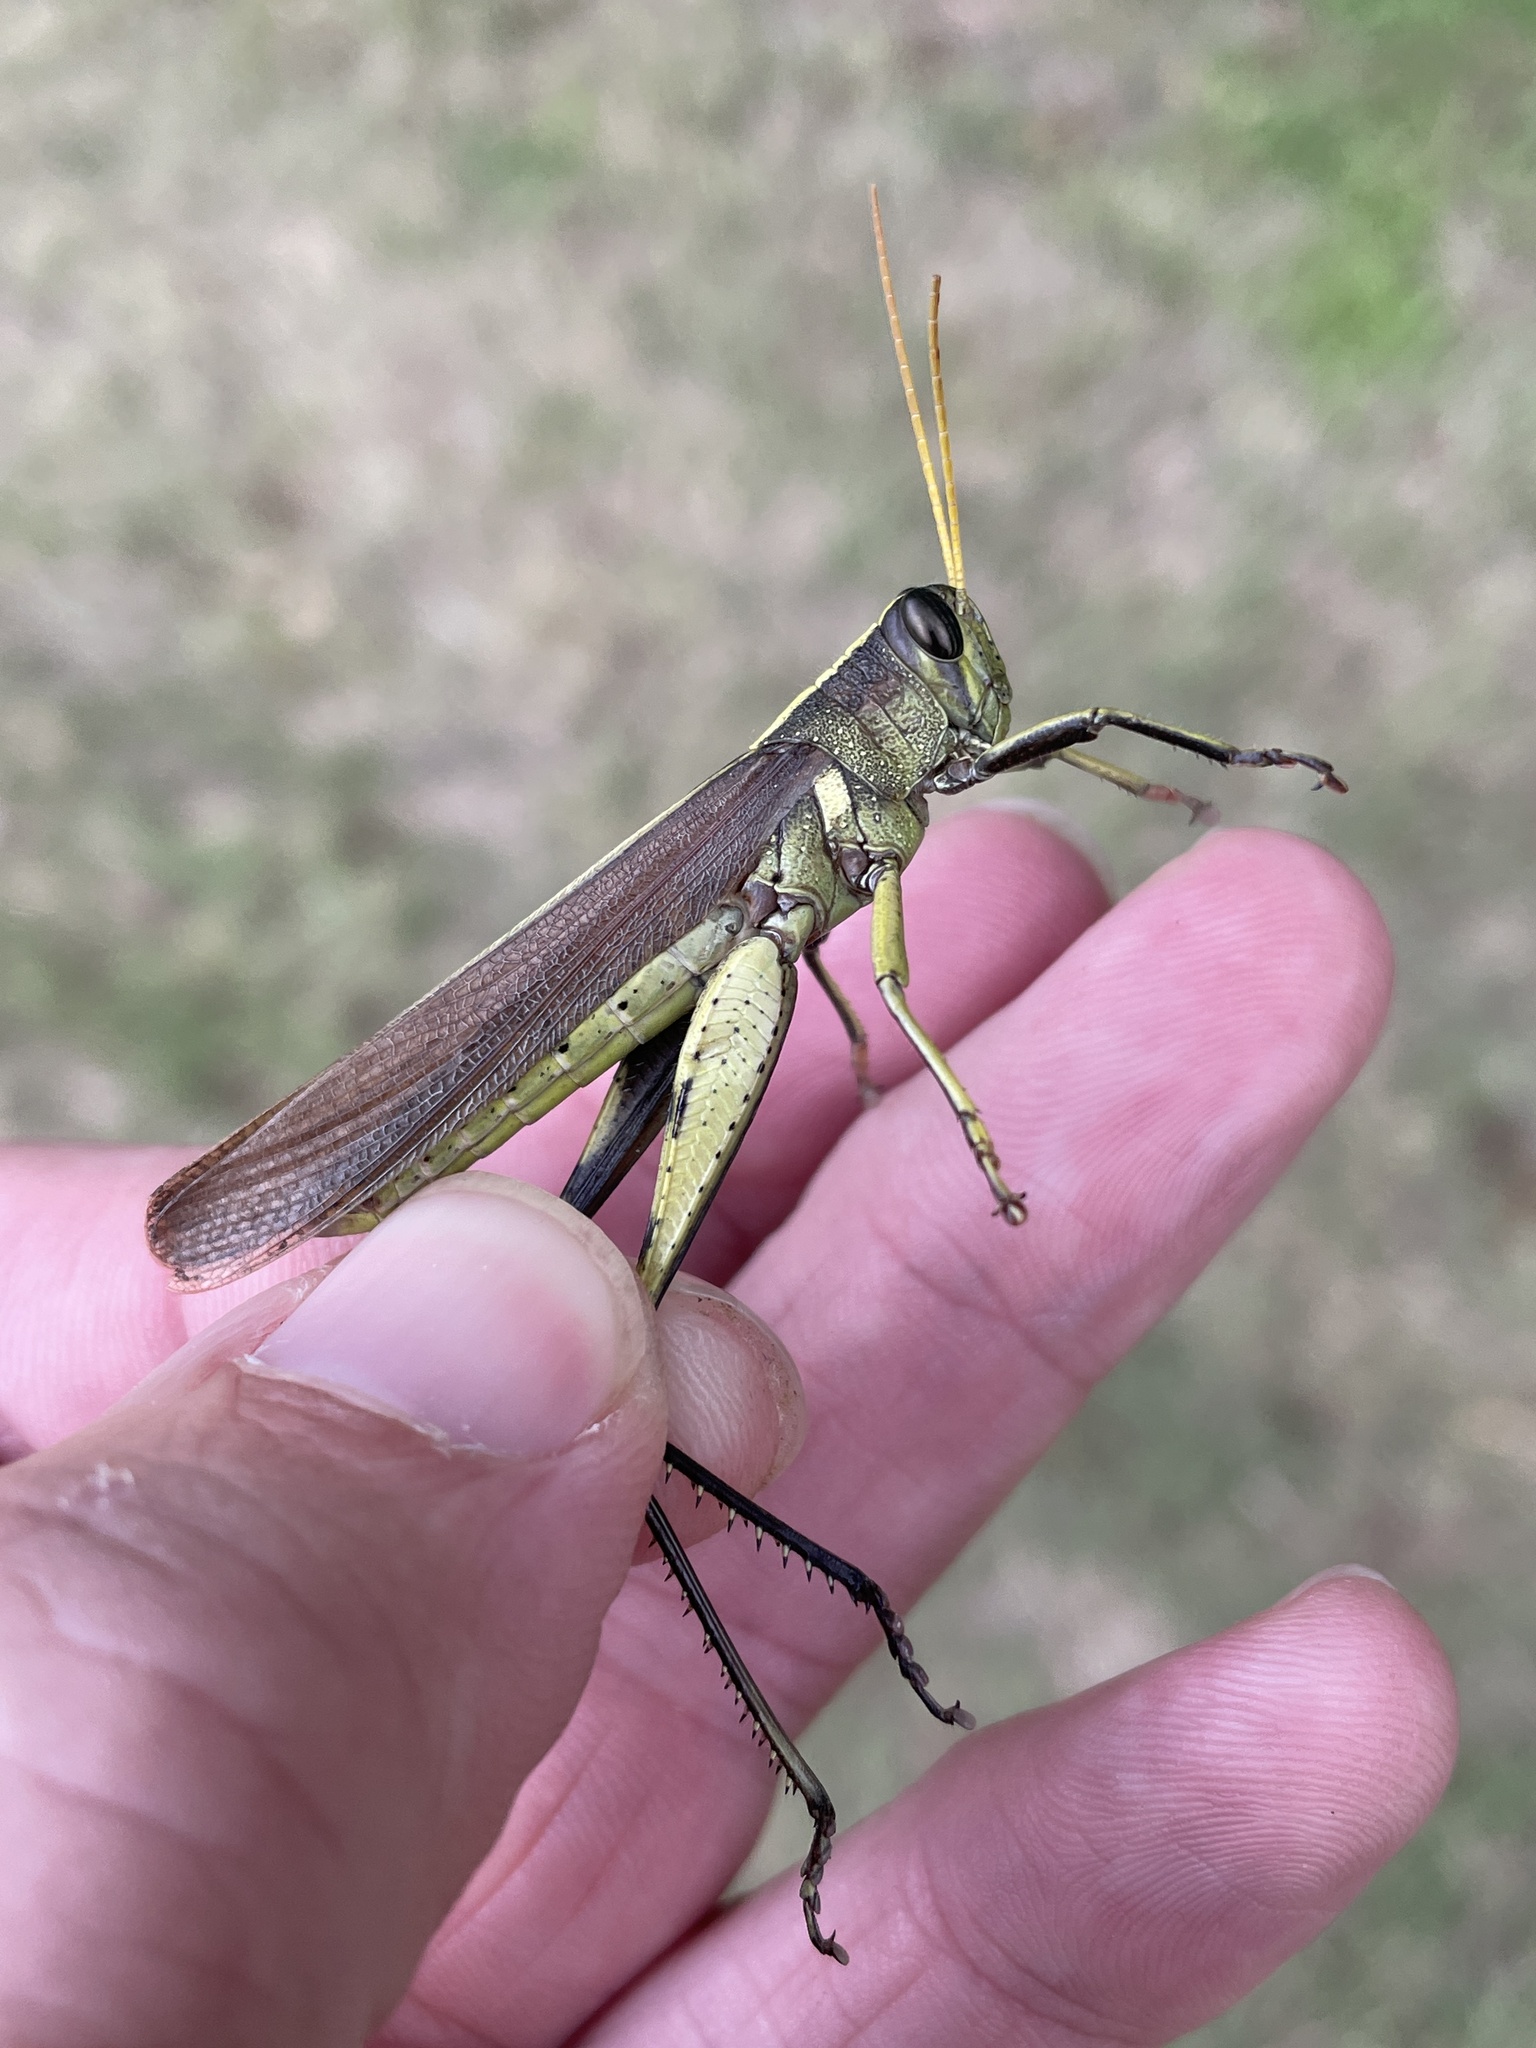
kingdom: Animalia
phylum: Arthropoda
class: Insecta
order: Orthoptera
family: Acrididae
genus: Schistocerca
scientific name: Schistocerca obscura
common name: Obscure bird grasshopper
